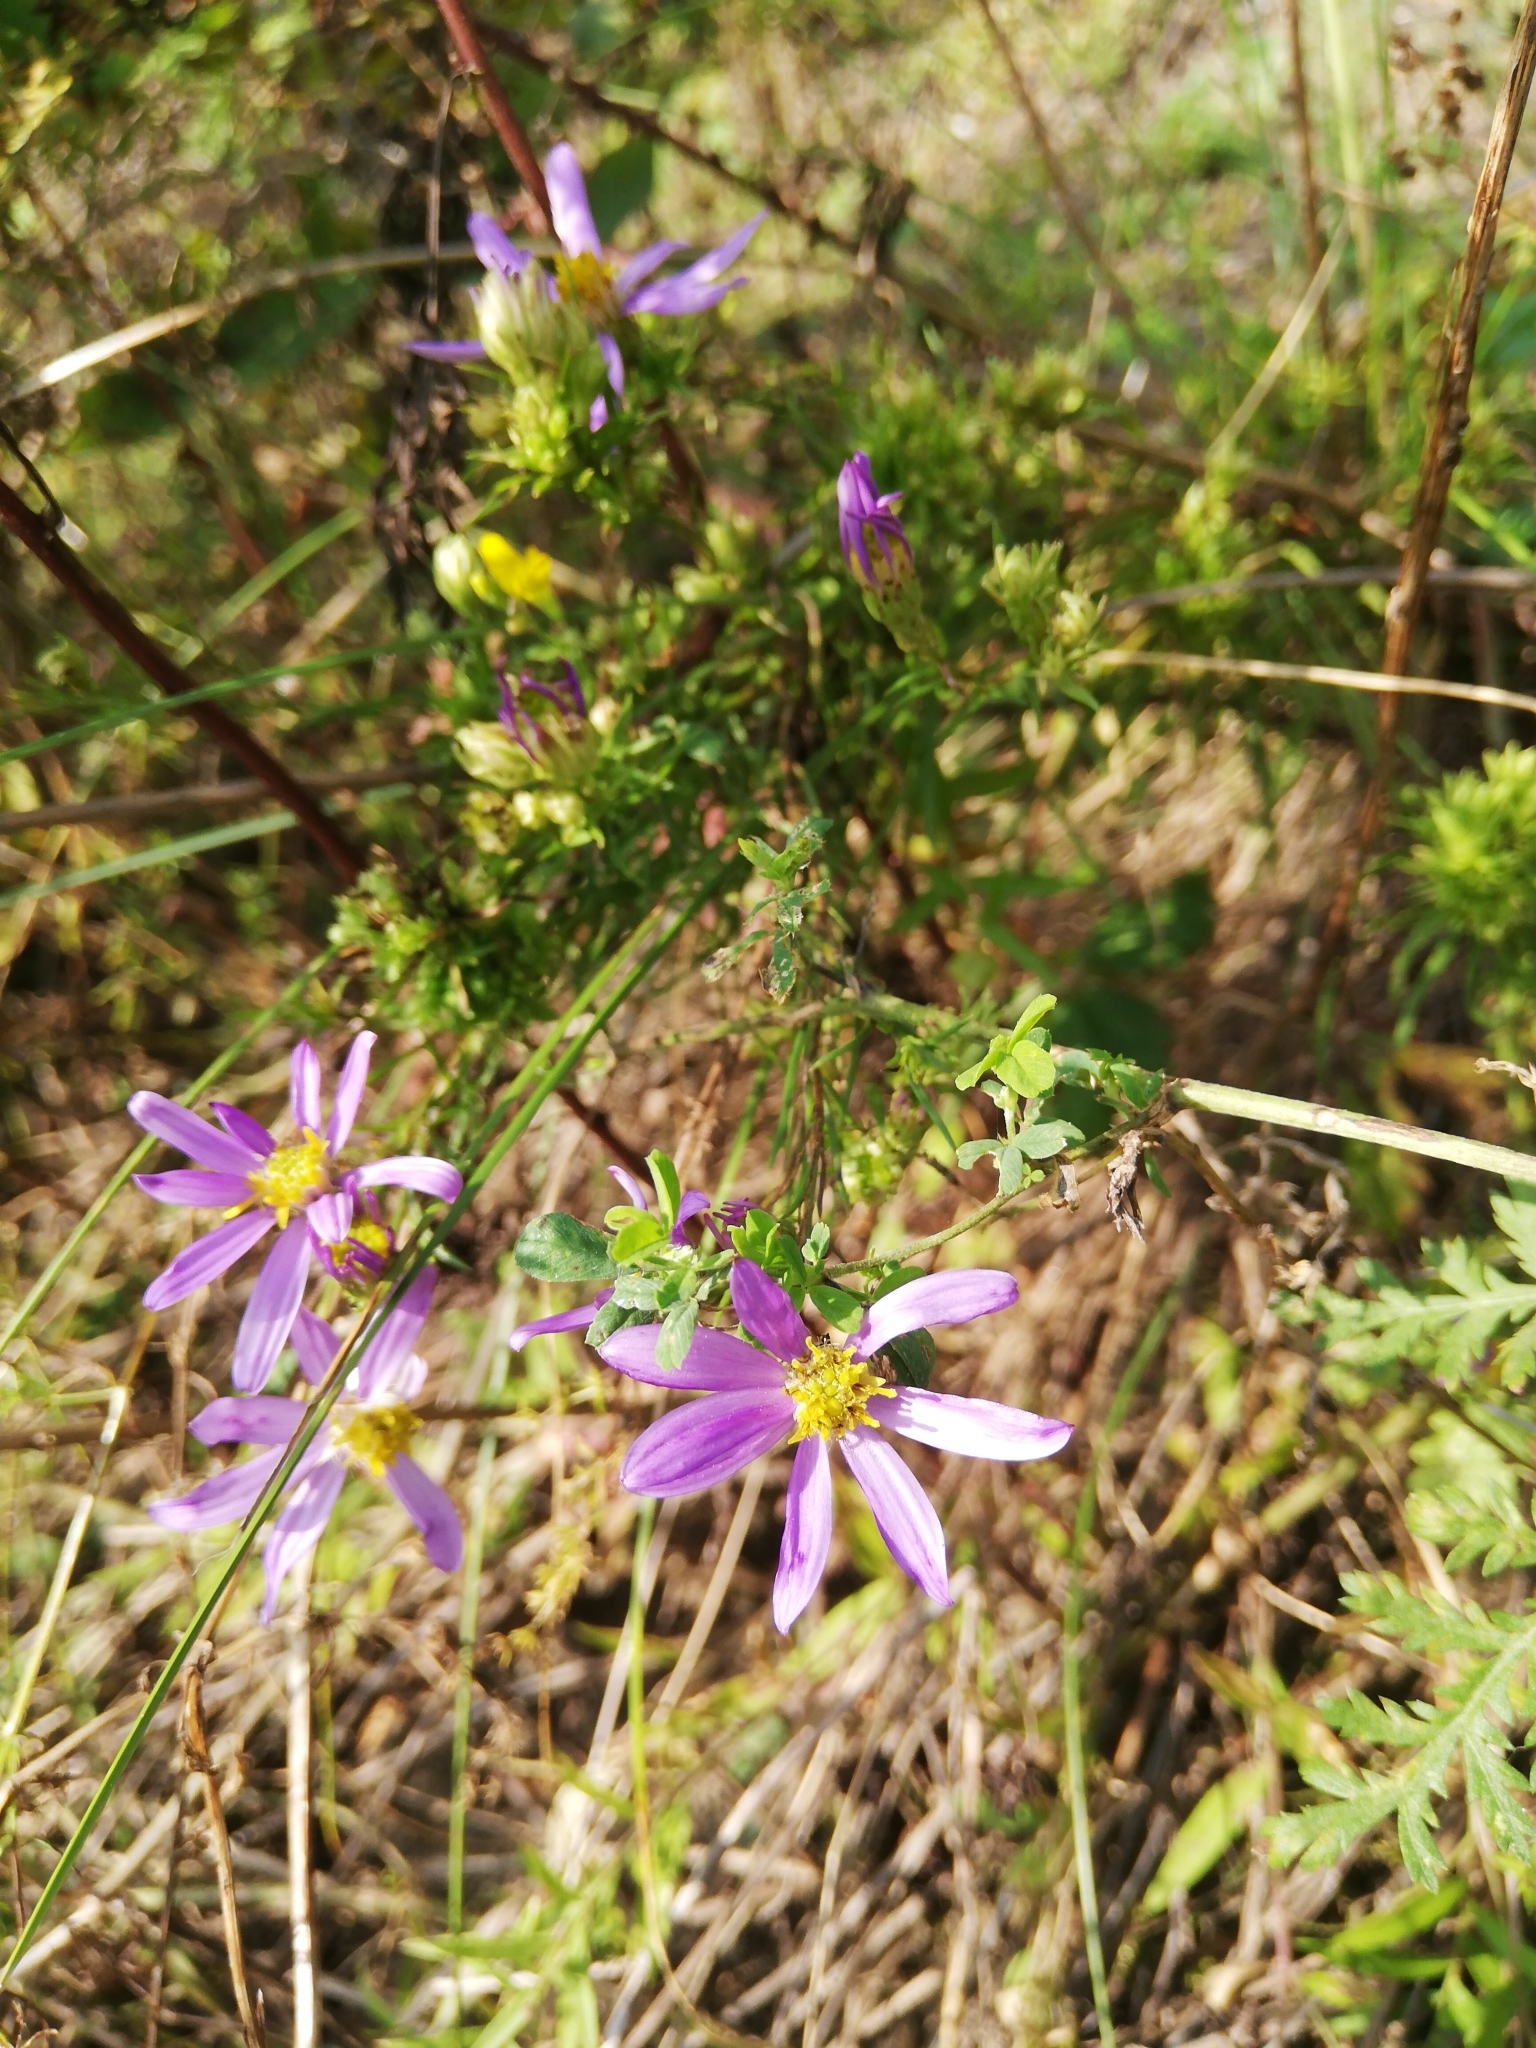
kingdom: Plantae
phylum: Tracheophyta
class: Magnoliopsida
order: Asterales
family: Asteraceae
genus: Galatella
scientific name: Galatella angustissima
